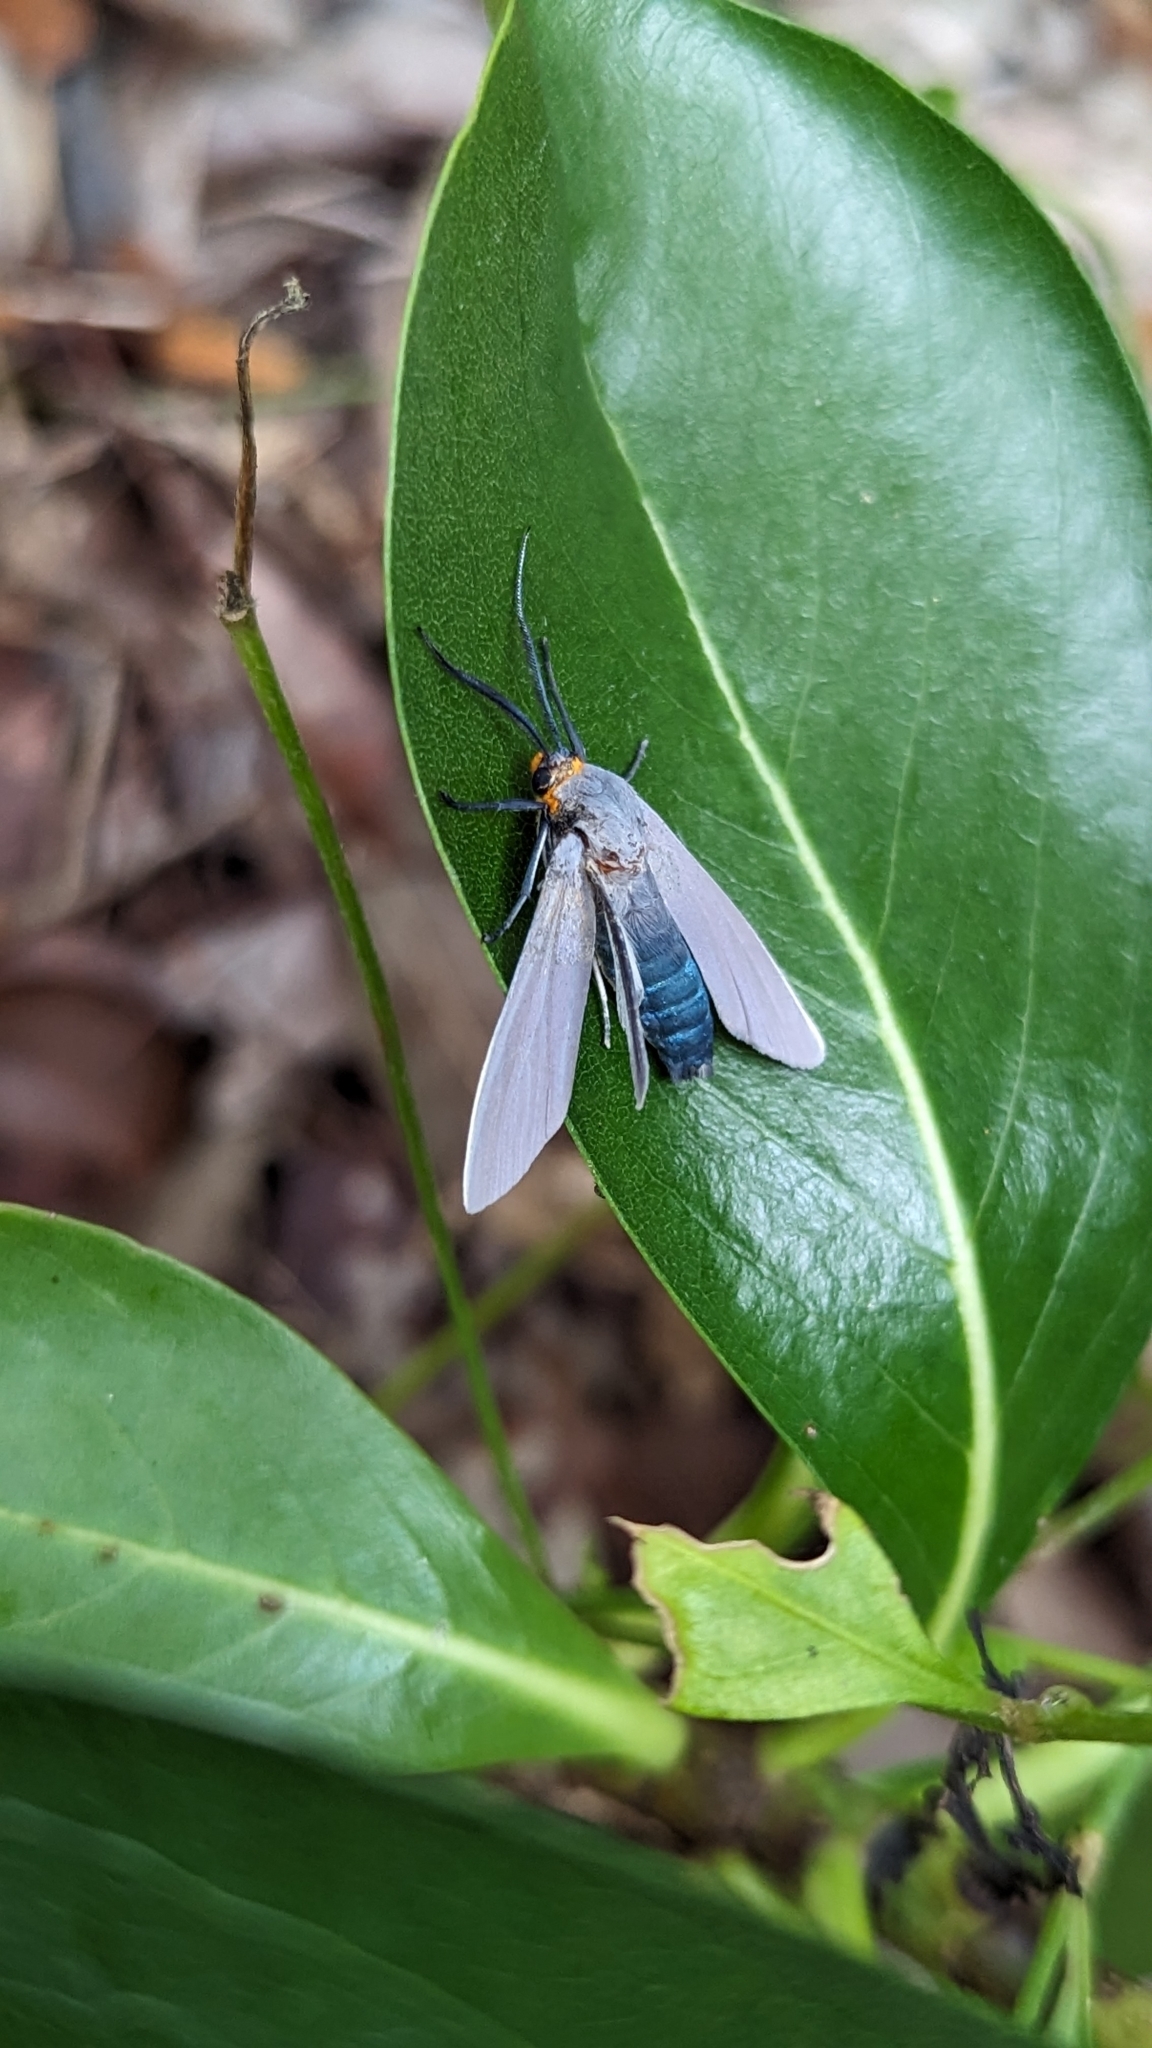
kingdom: Animalia
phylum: Arthropoda
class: Insecta
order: Lepidoptera
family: Erebidae
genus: Lymire
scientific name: Lymire edwardsii
